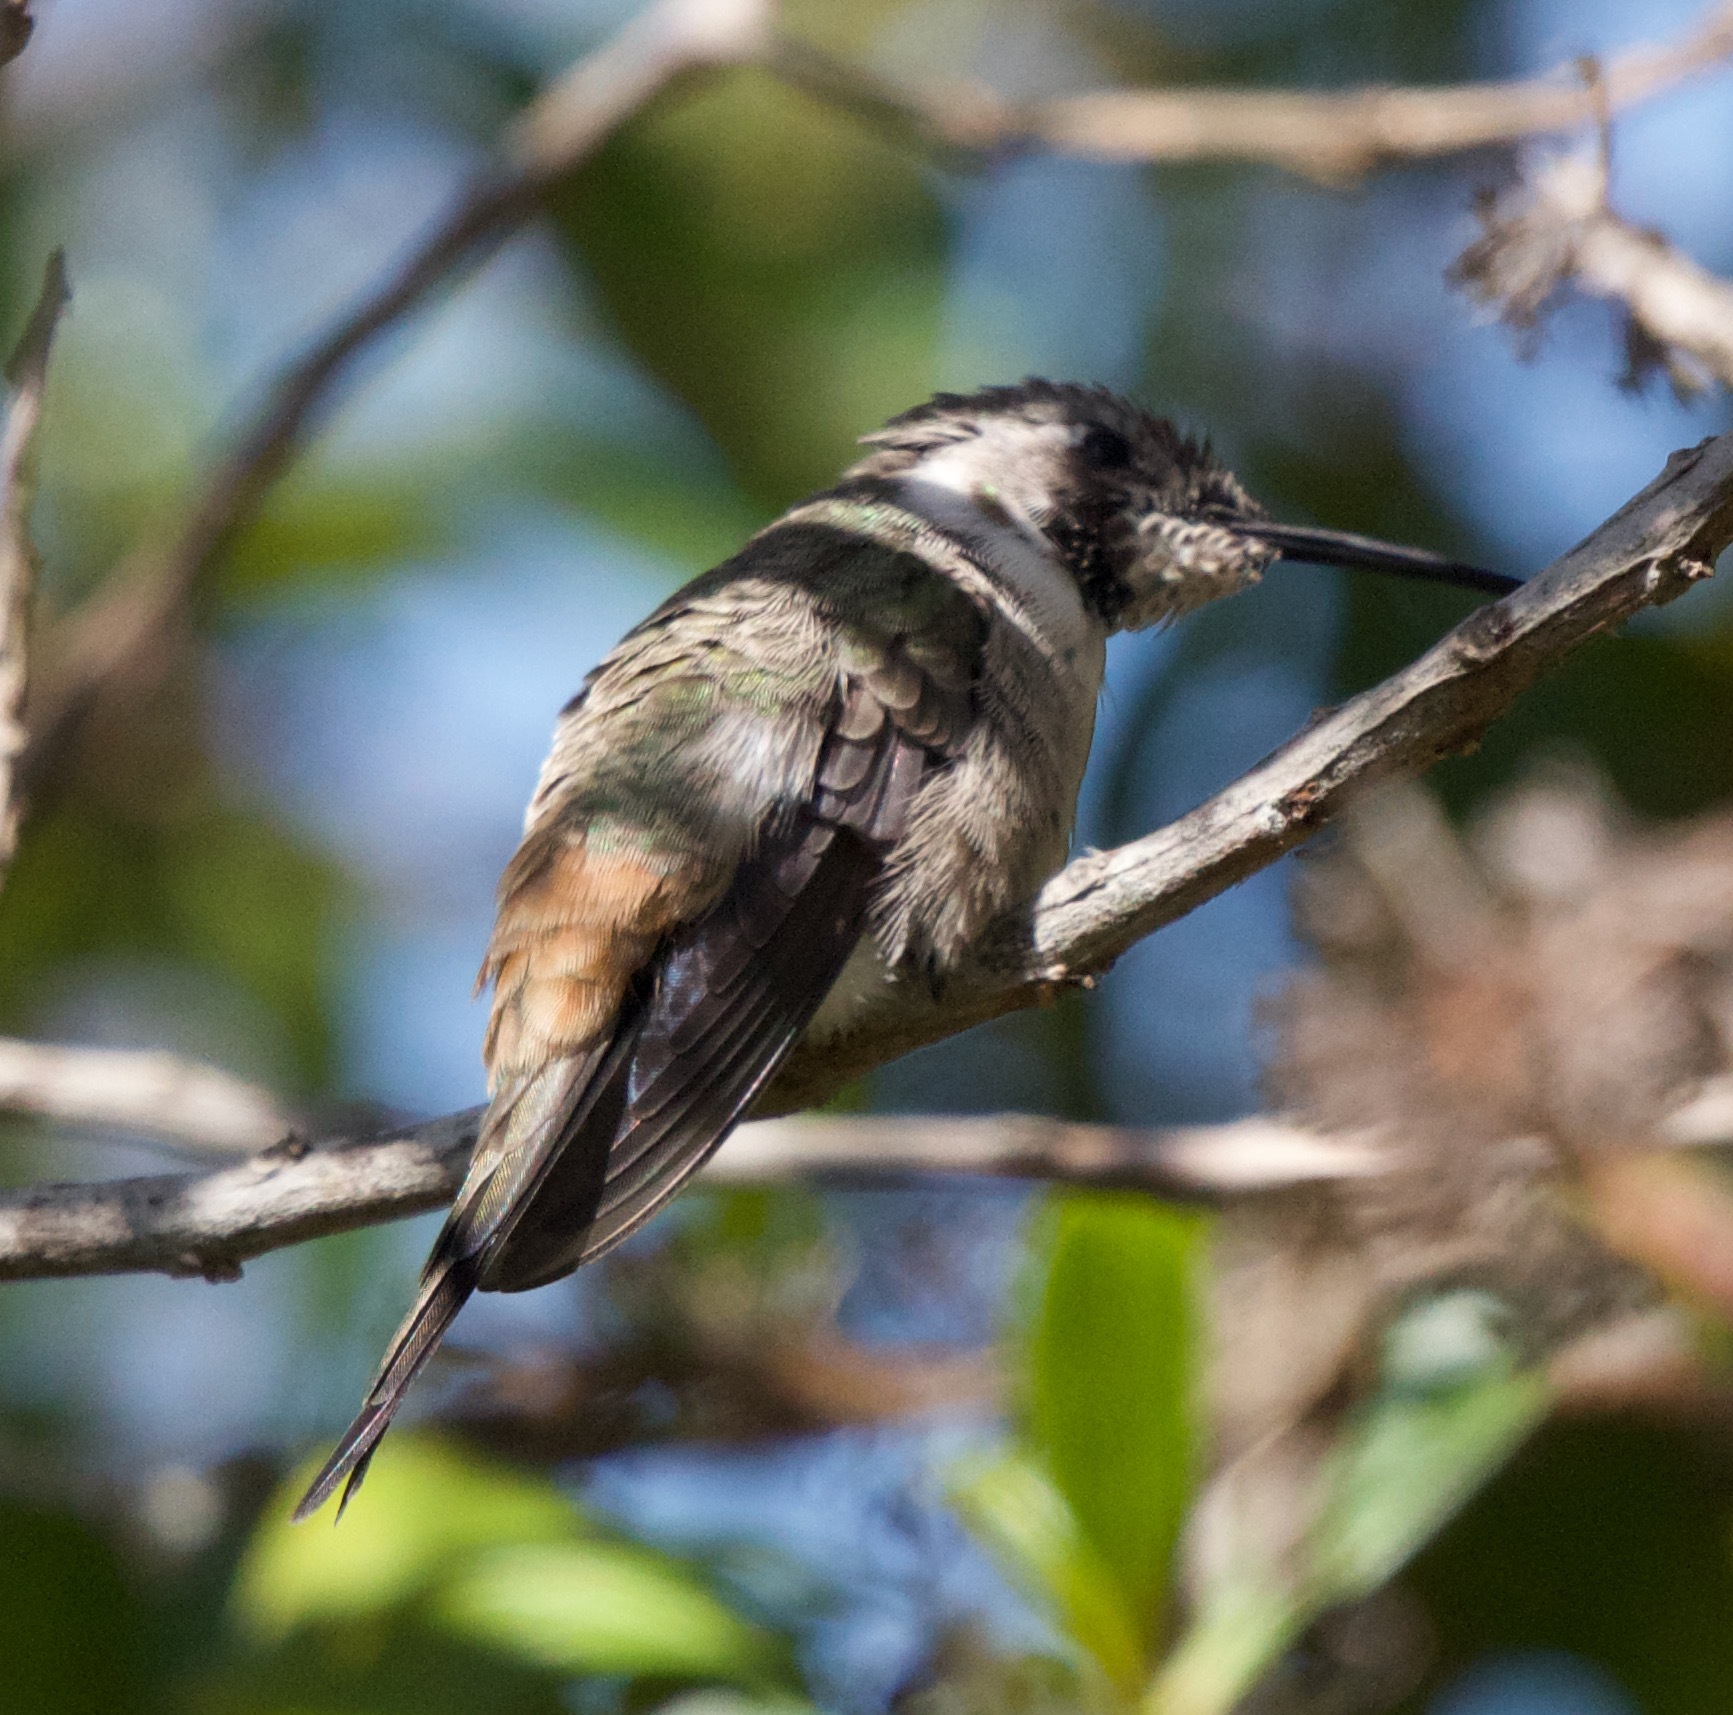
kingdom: Animalia
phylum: Chordata
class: Aves
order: Apodiformes
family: Trochilidae
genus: Rhodopis
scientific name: Rhodopis vesper
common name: Oasis hummingbird
